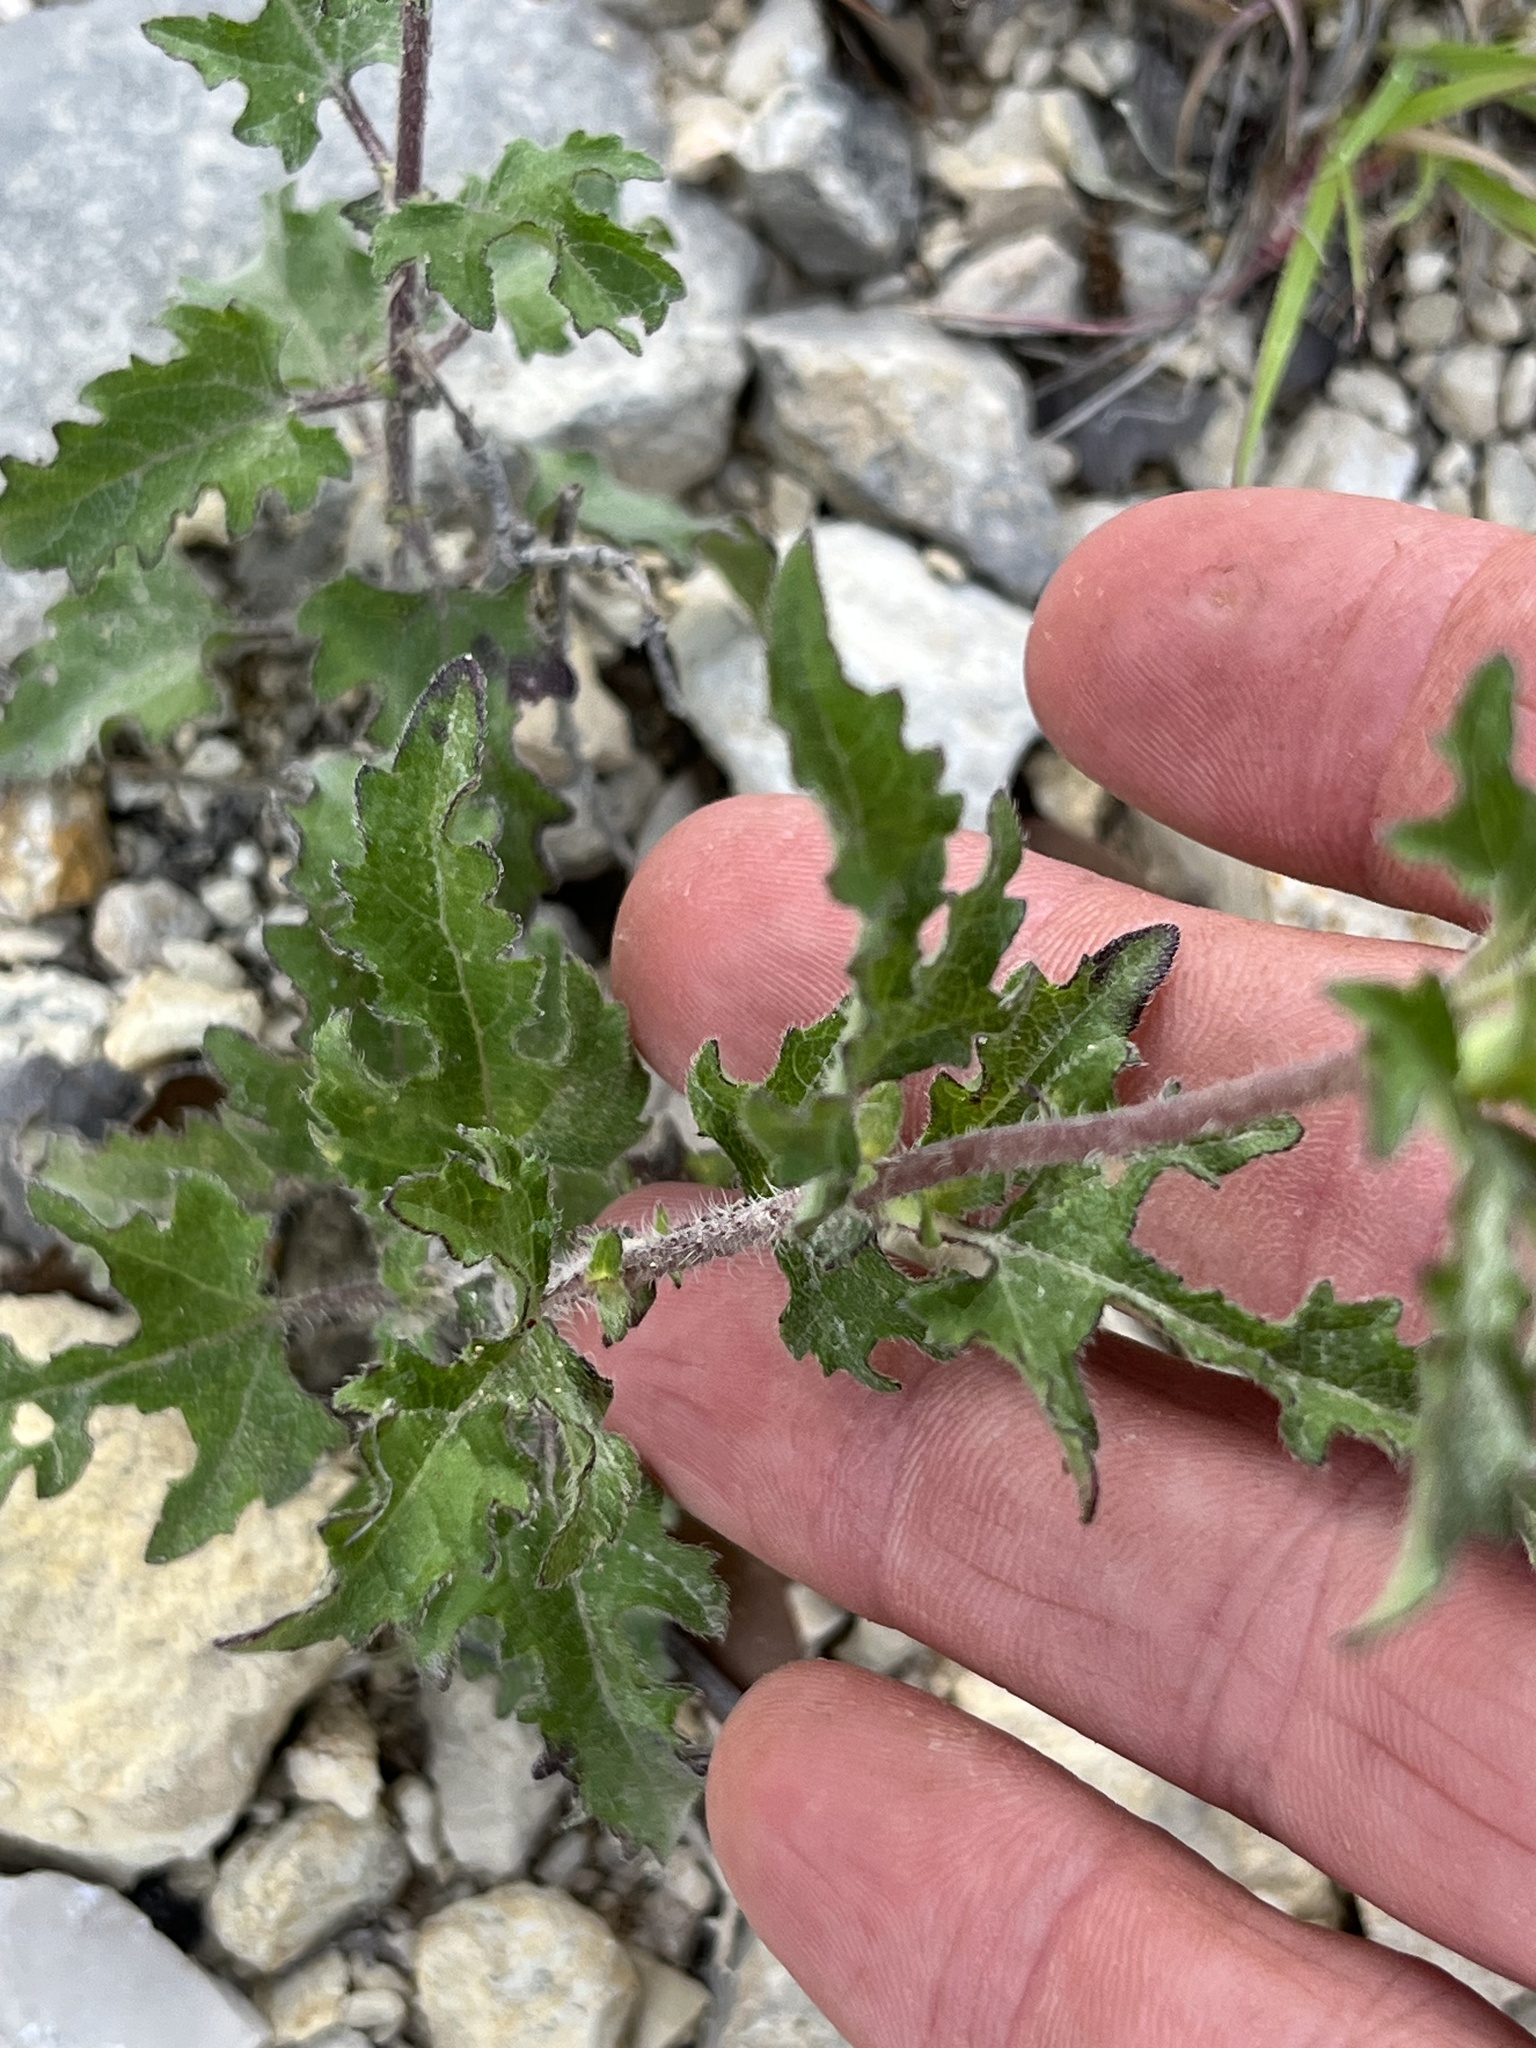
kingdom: Plantae
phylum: Tracheophyta
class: Magnoliopsida
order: Asterales
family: Asteraceae
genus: Simsia
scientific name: Simsia calva
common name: Awnless bush-sunflower
